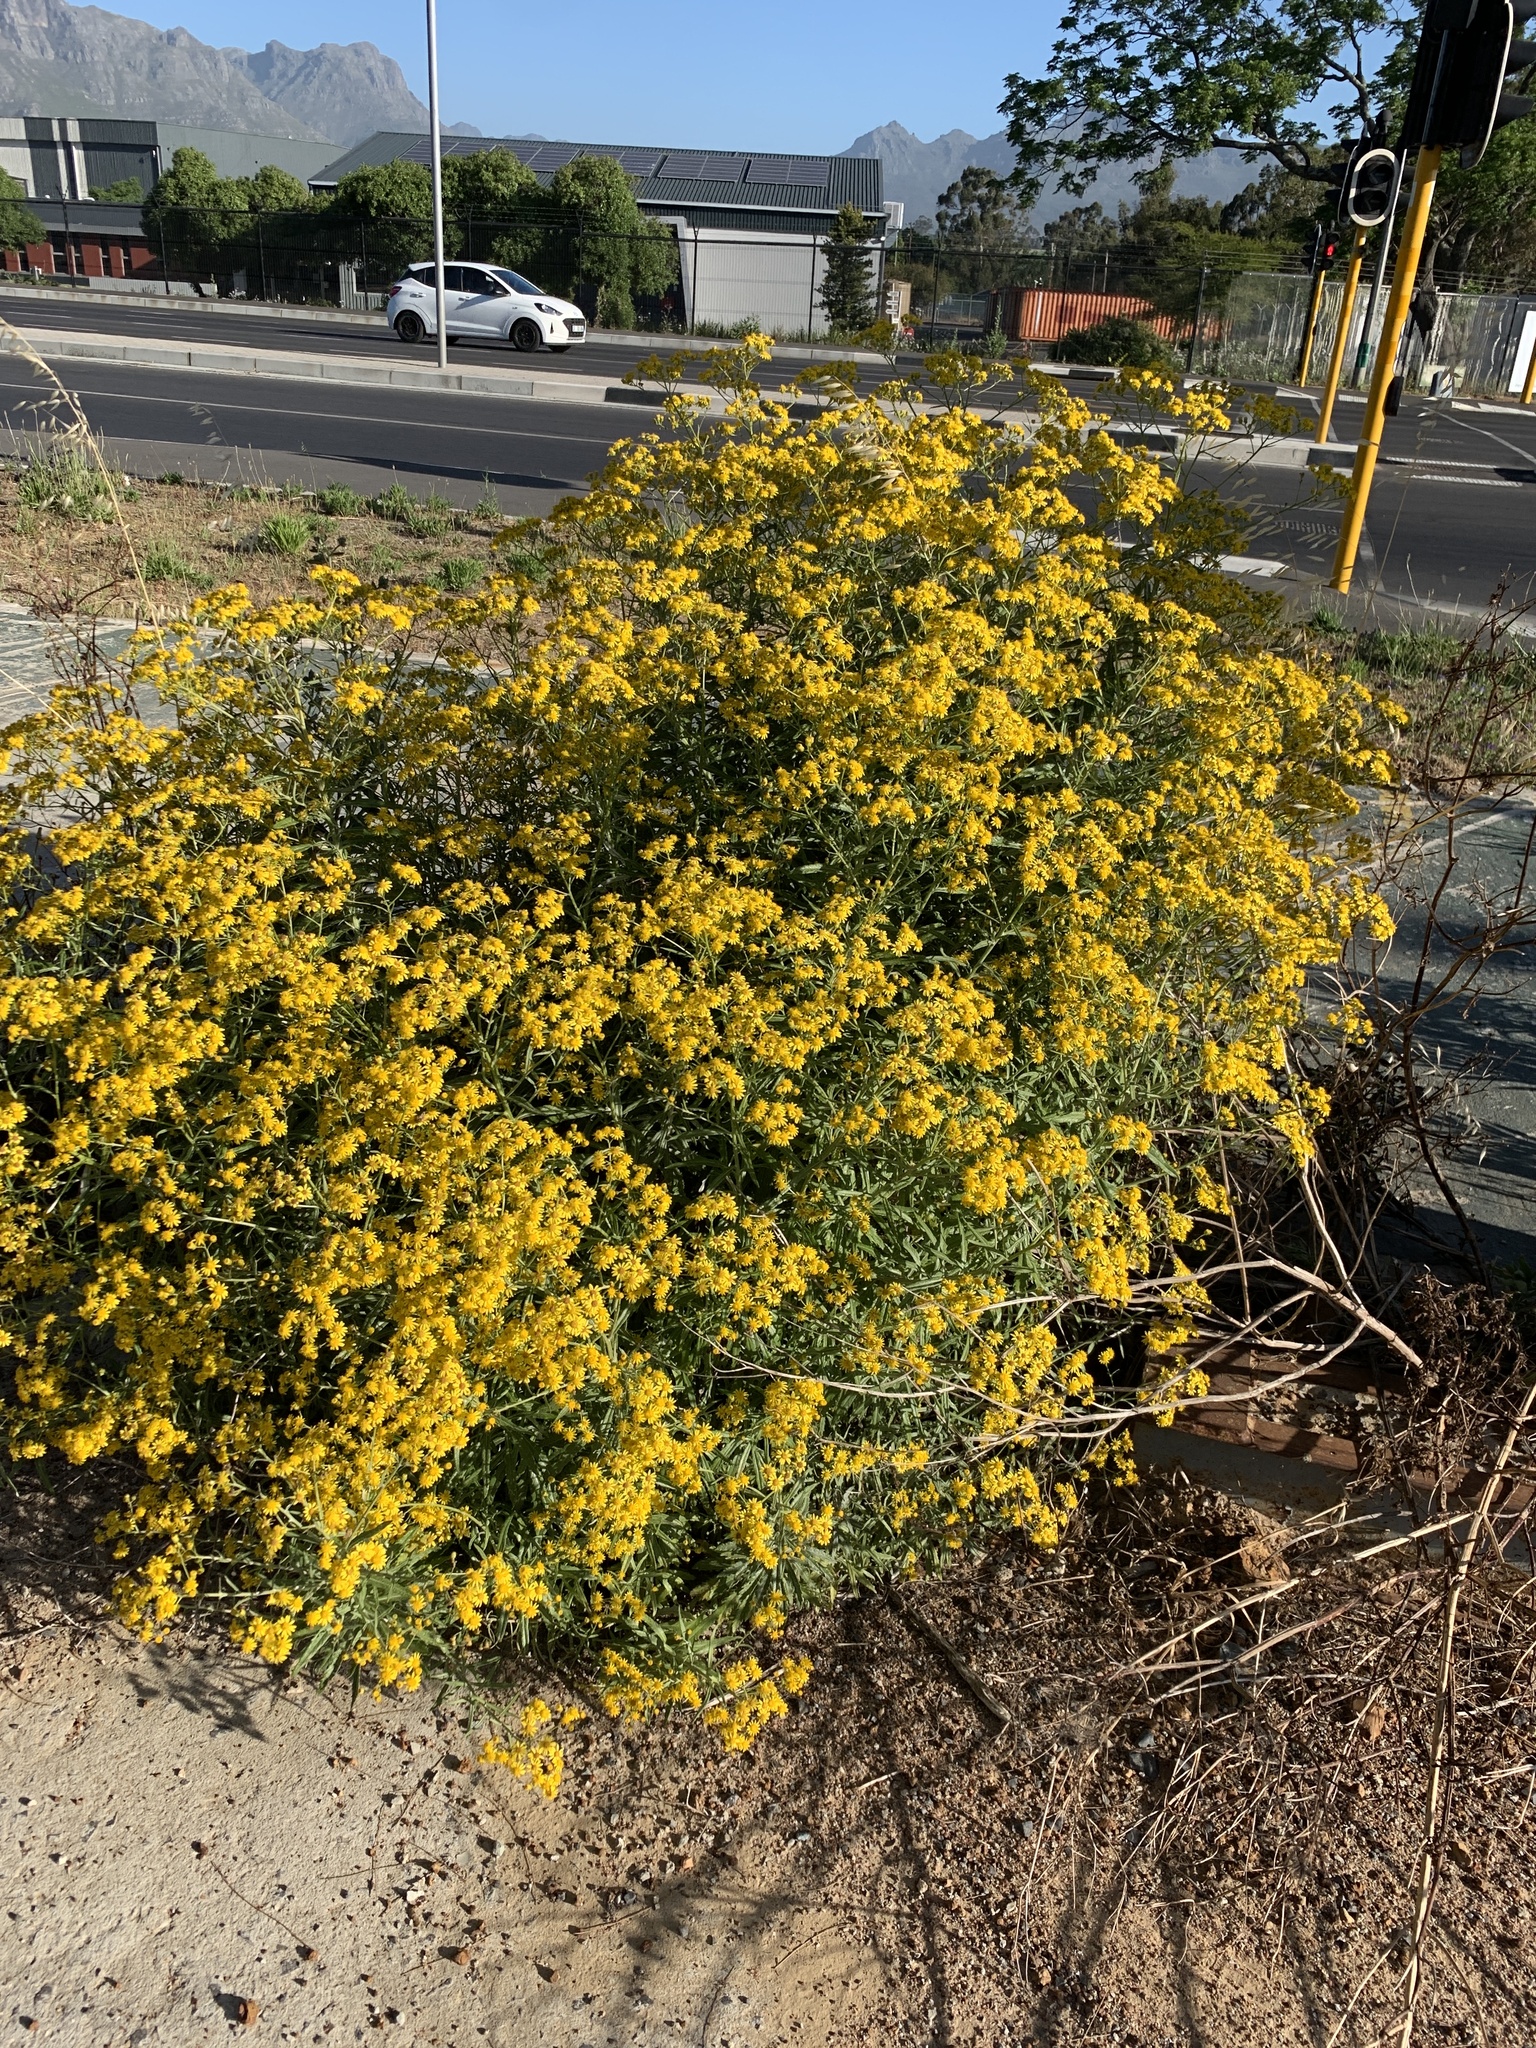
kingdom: Plantae
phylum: Tracheophyta
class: Magnoliopsida
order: Asterales
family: Asteraceae
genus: Senecio
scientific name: Senecio pterophorus
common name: Shoddy ragwort
